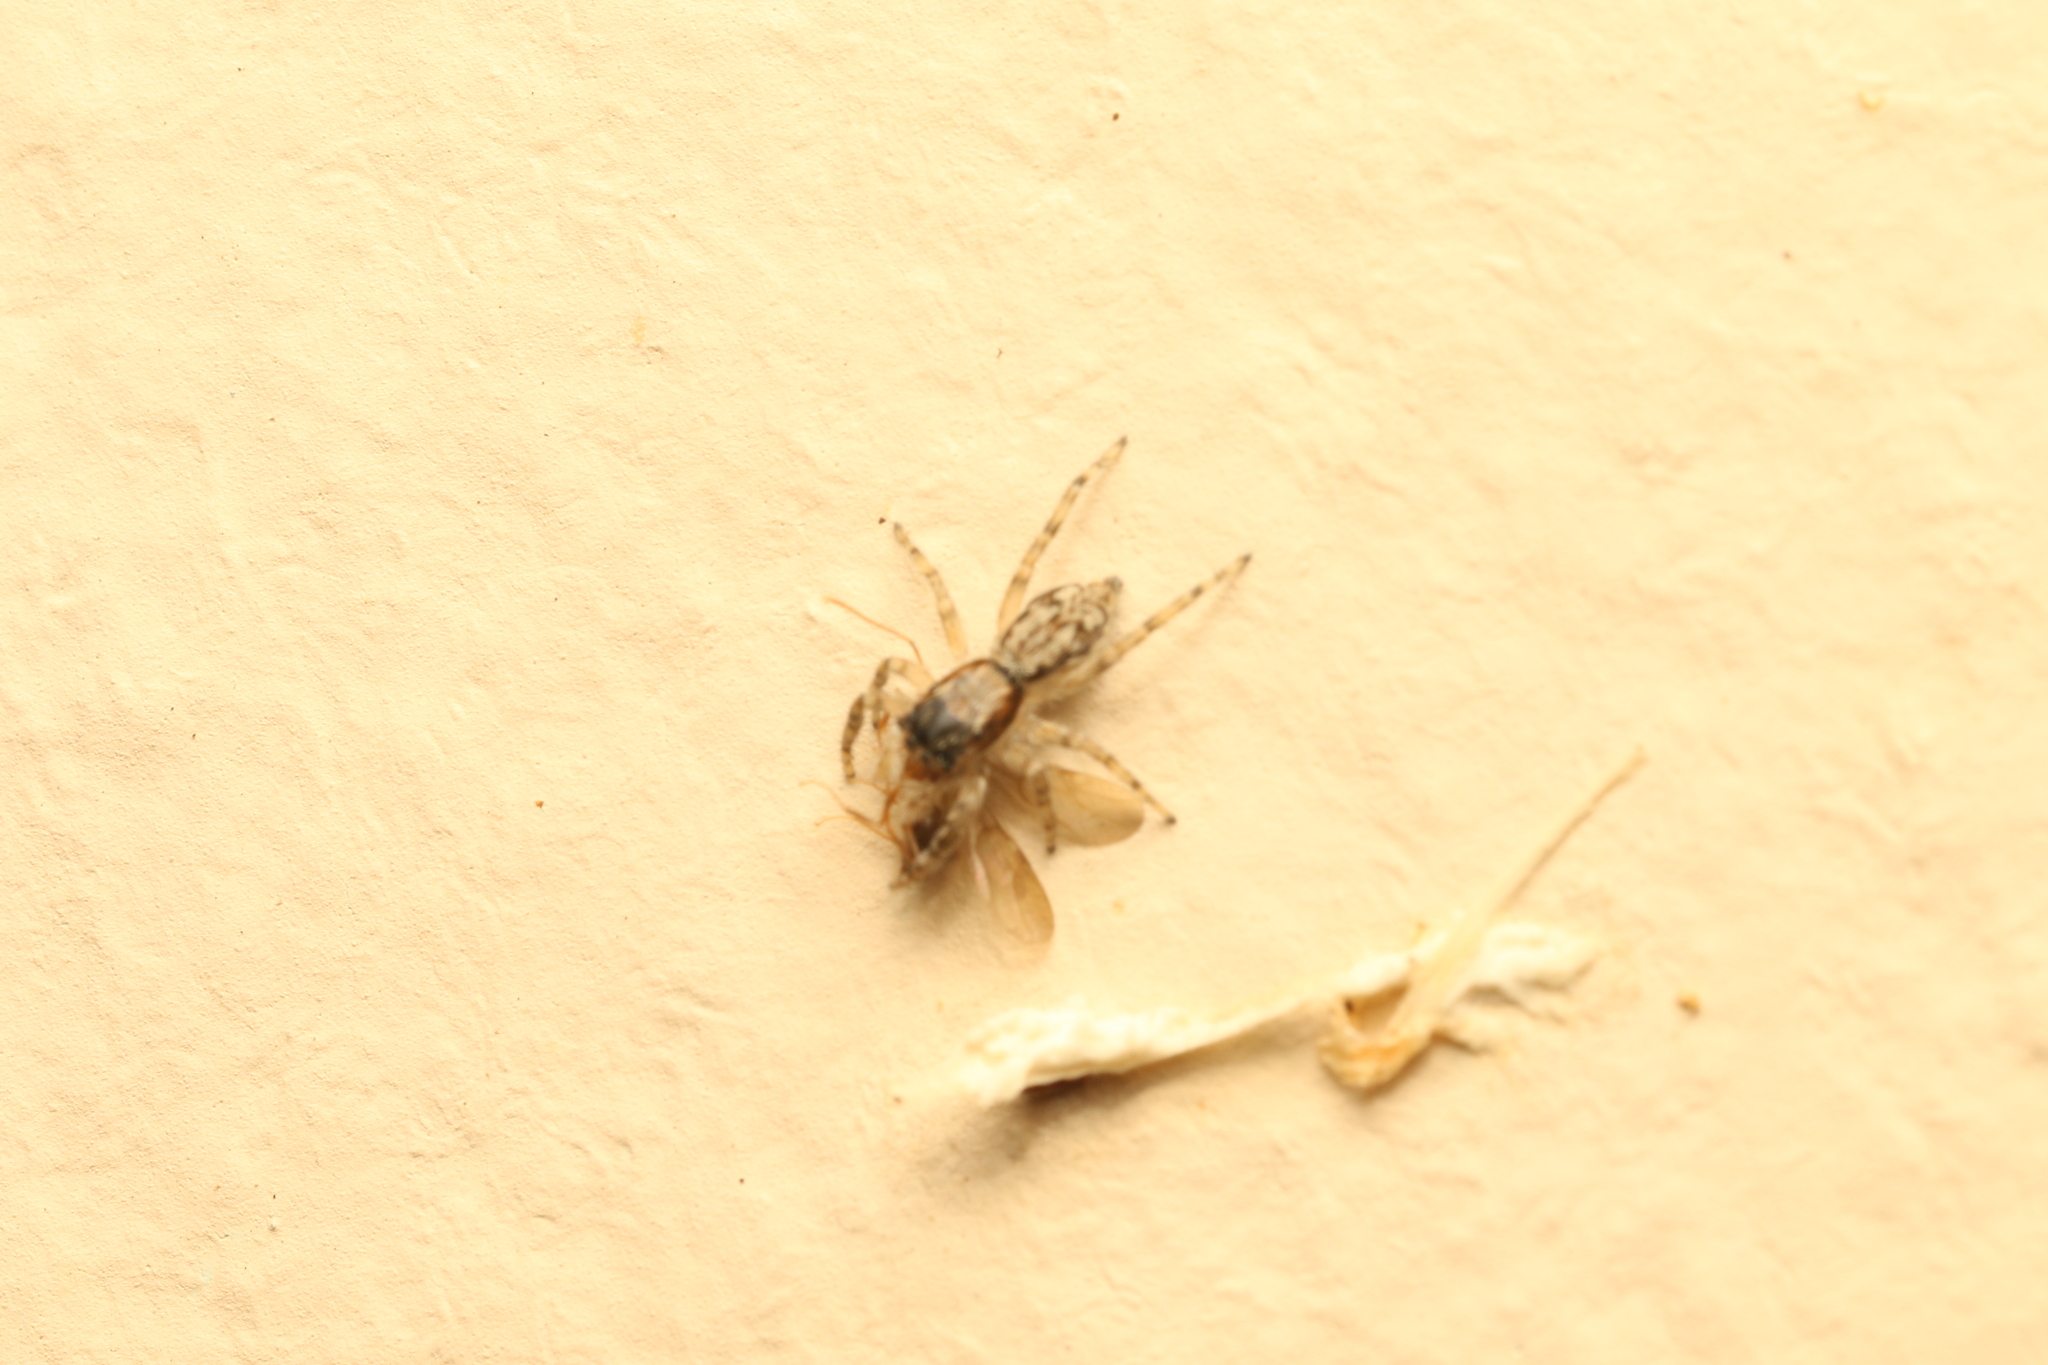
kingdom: Animalia
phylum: Arthropoda
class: Arachnida
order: Araneae
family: Salticidae
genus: Menemerus
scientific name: Menemerus bivittatus
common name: Gray wall jumper
